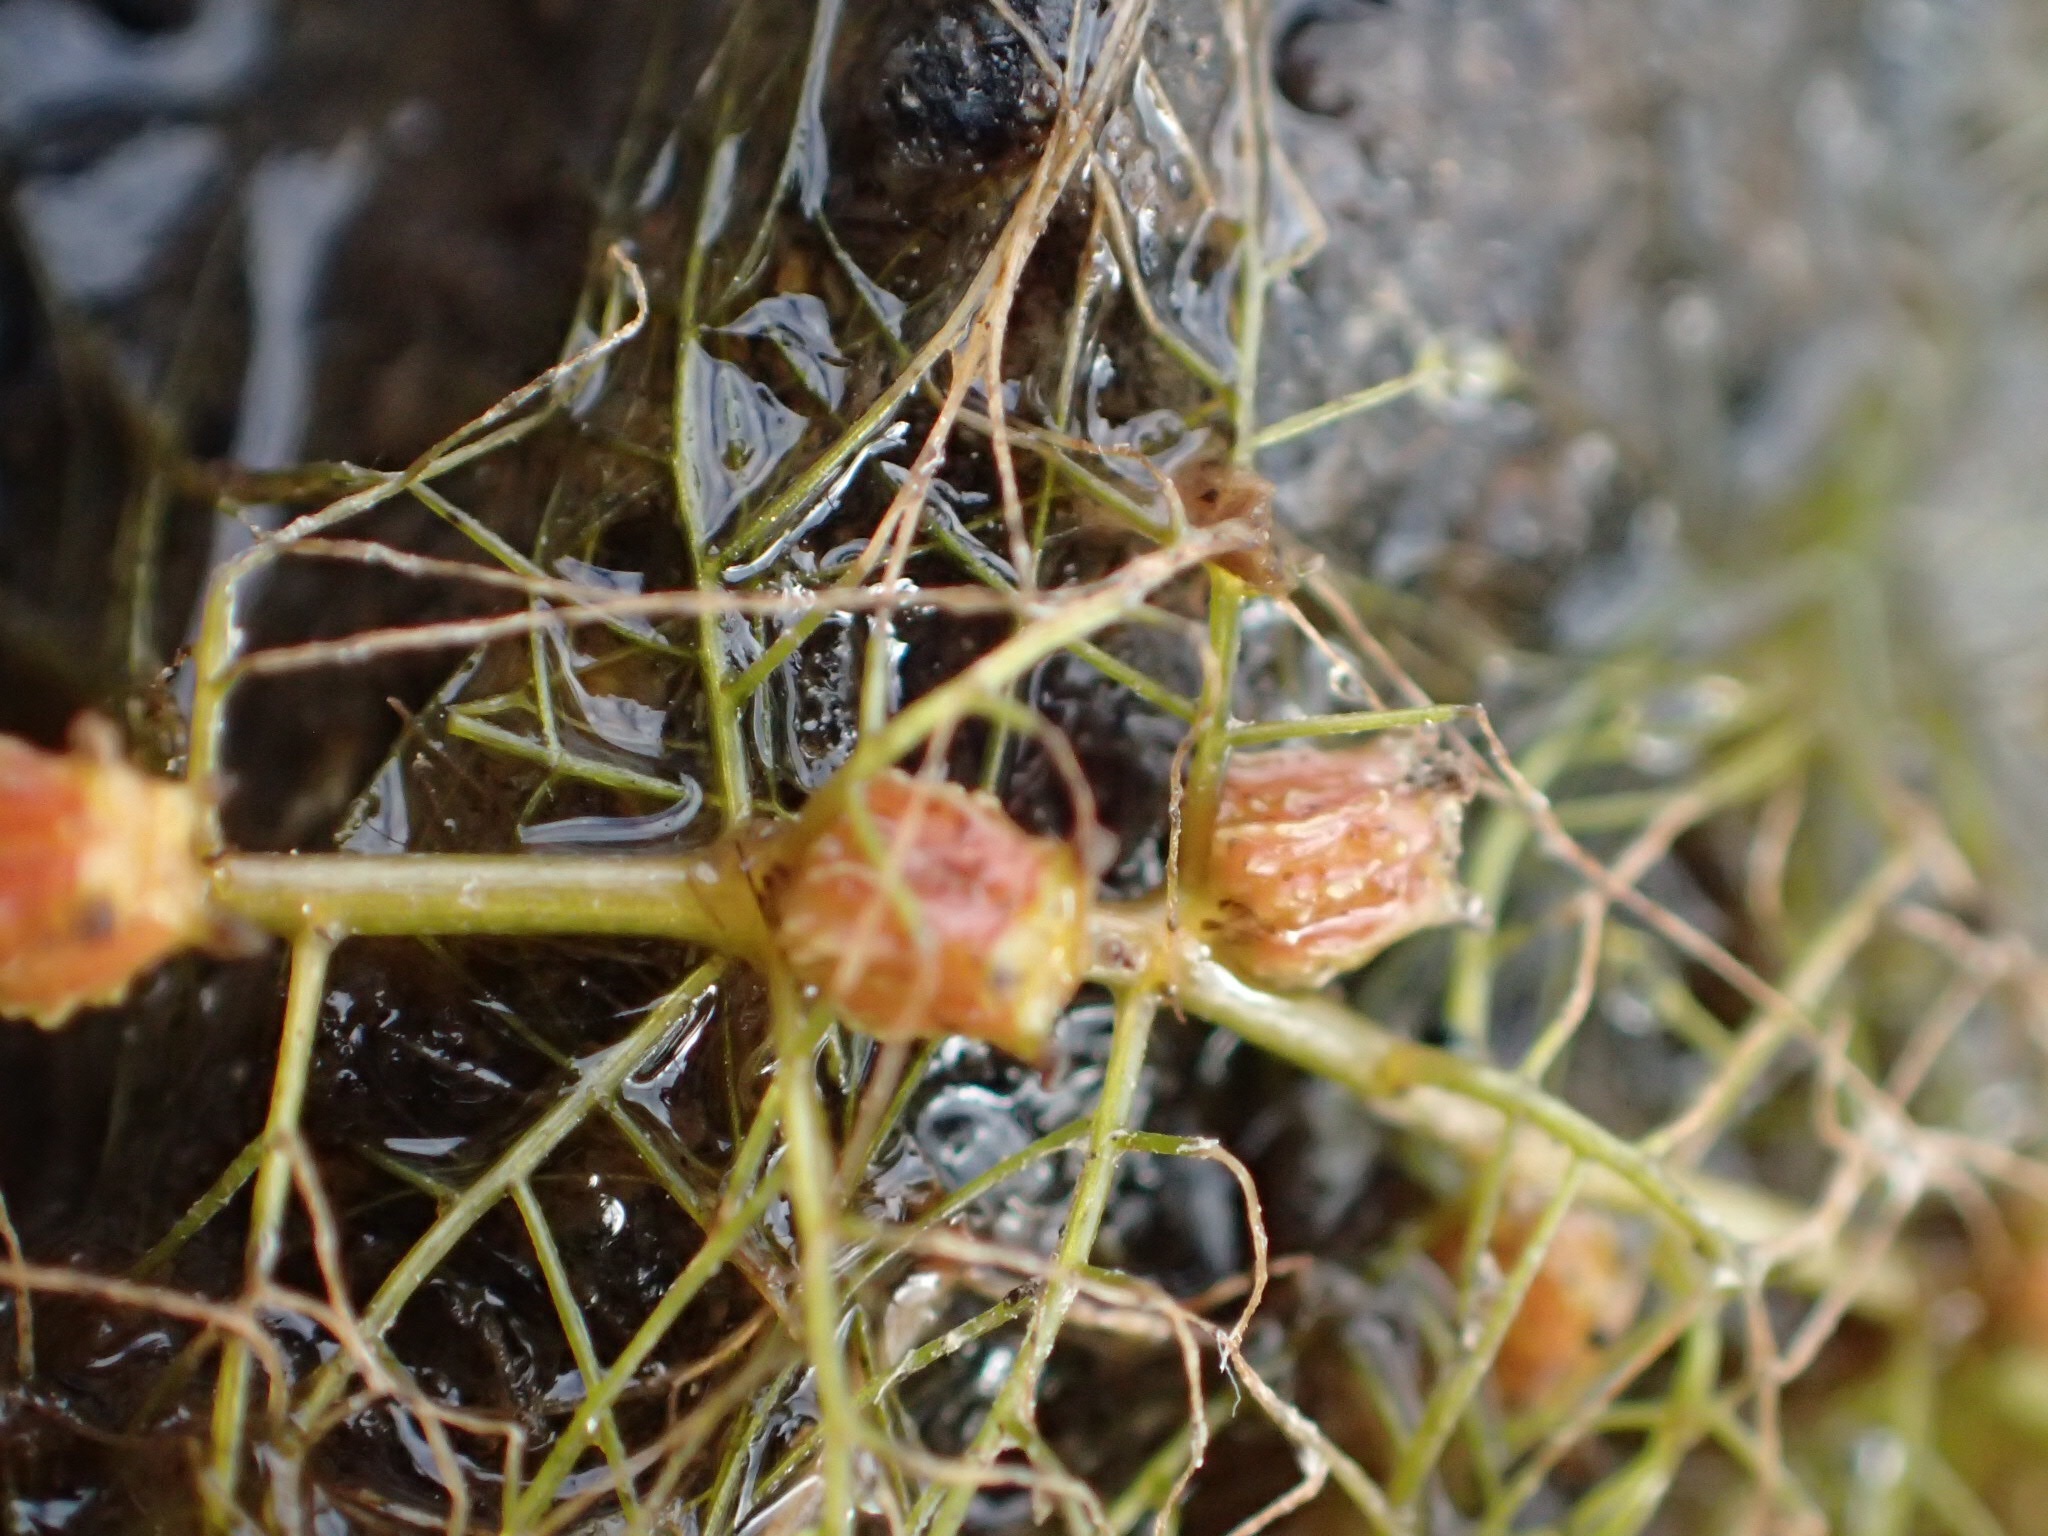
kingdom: Plantae
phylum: Tracheophyta
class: Magnoliopsida
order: Saxifragales
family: Haloragaceae
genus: Myriophyllum
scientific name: Myriophyllum farwellii
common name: Farwell's water-milfoil
